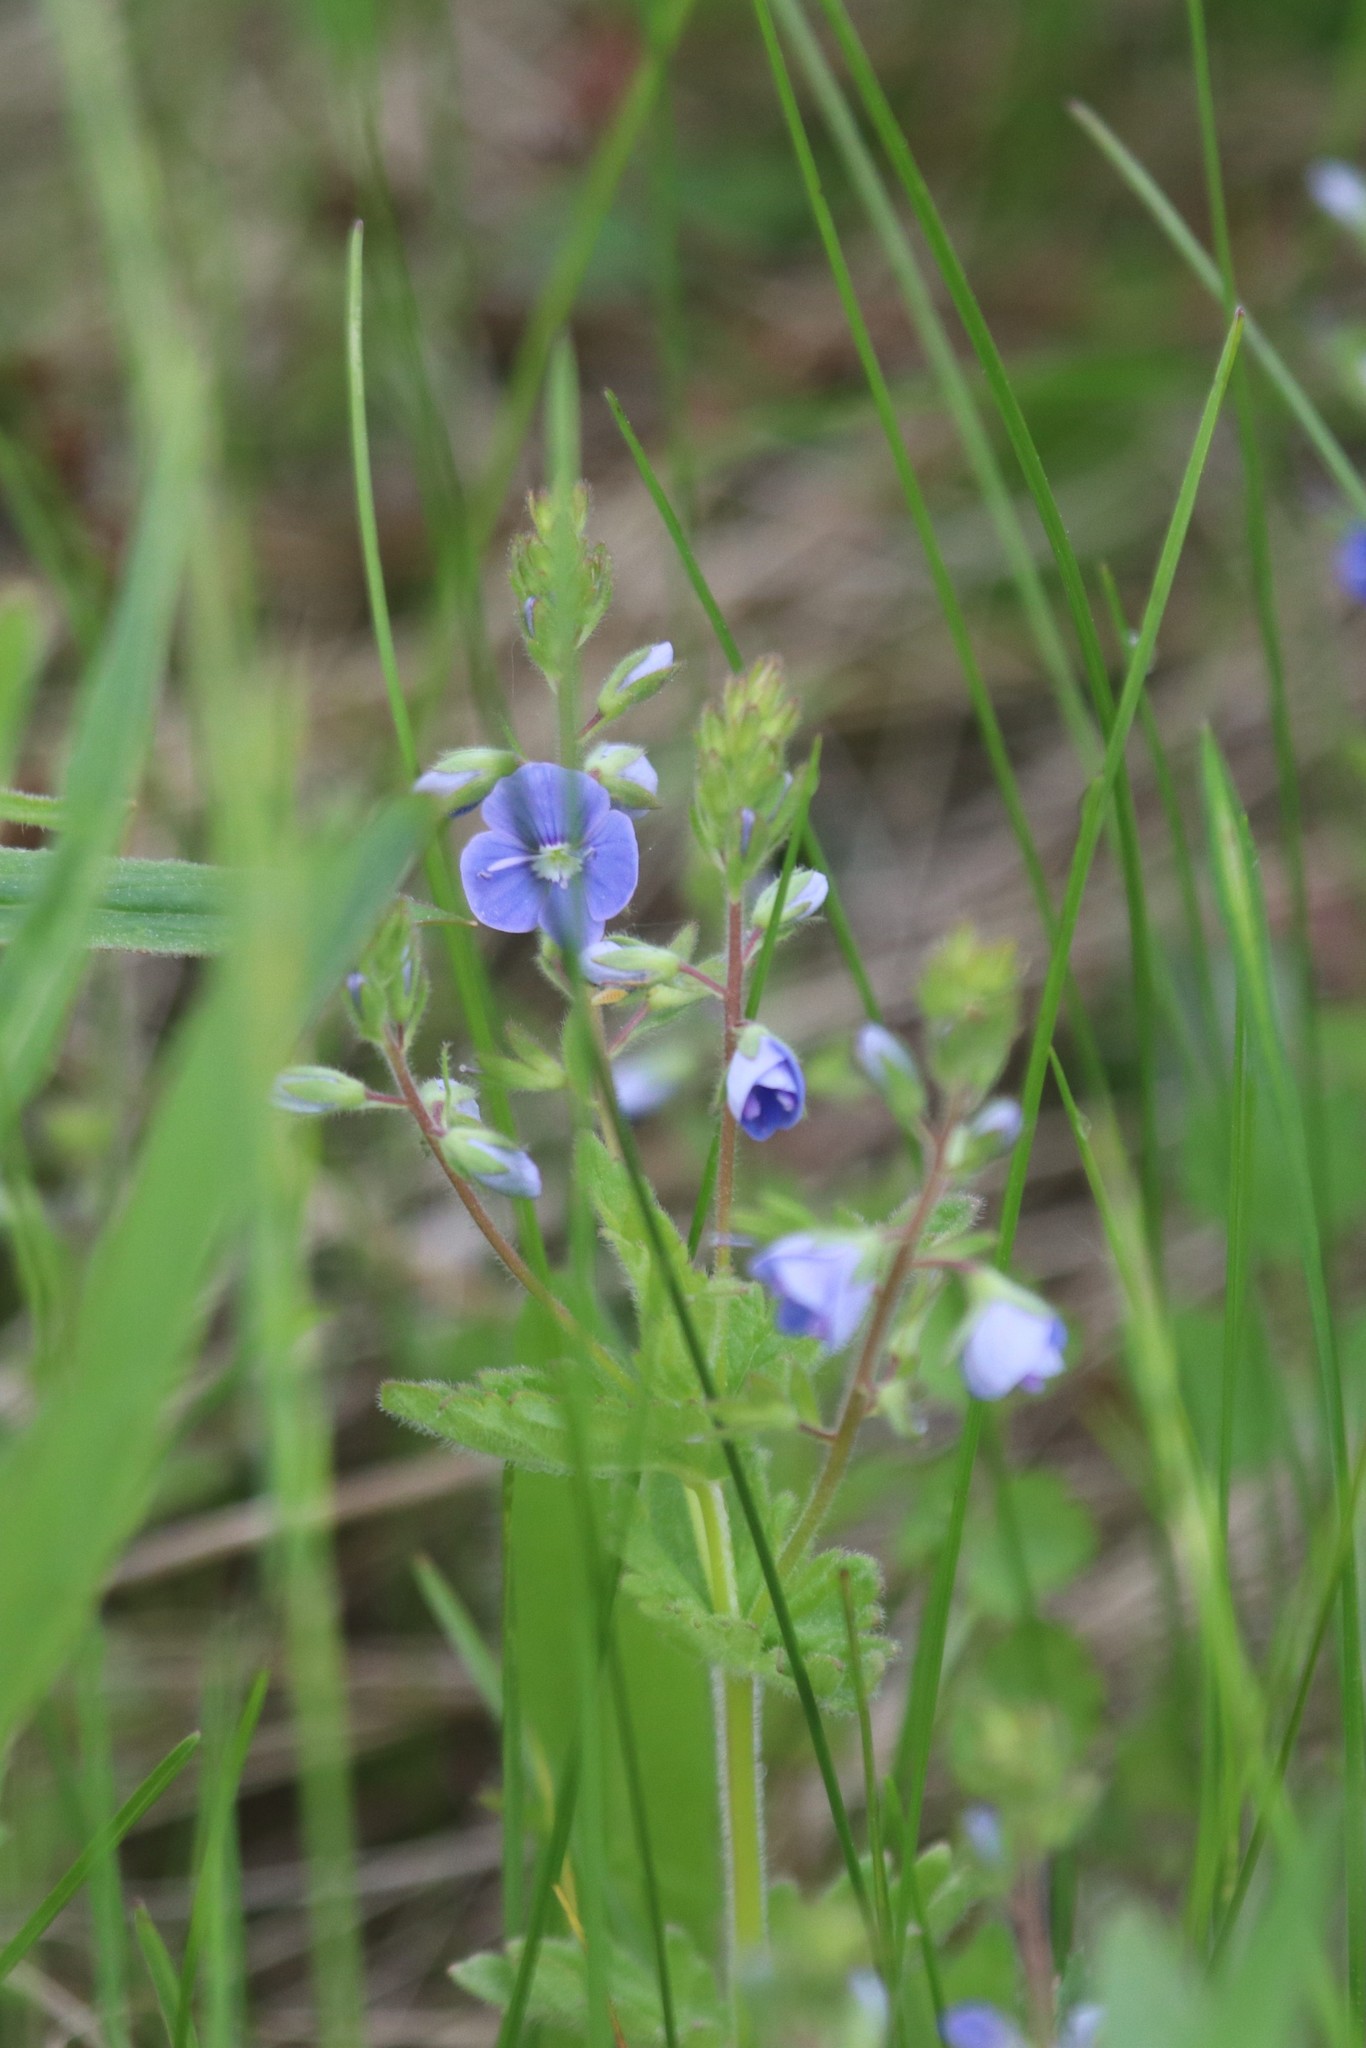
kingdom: Plantae
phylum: Tracheophyta
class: Magnoliopsida
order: Lamiales
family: Plantaginaceae
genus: Veronica
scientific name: Veronica chamaedrys
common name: Germander speedwell
